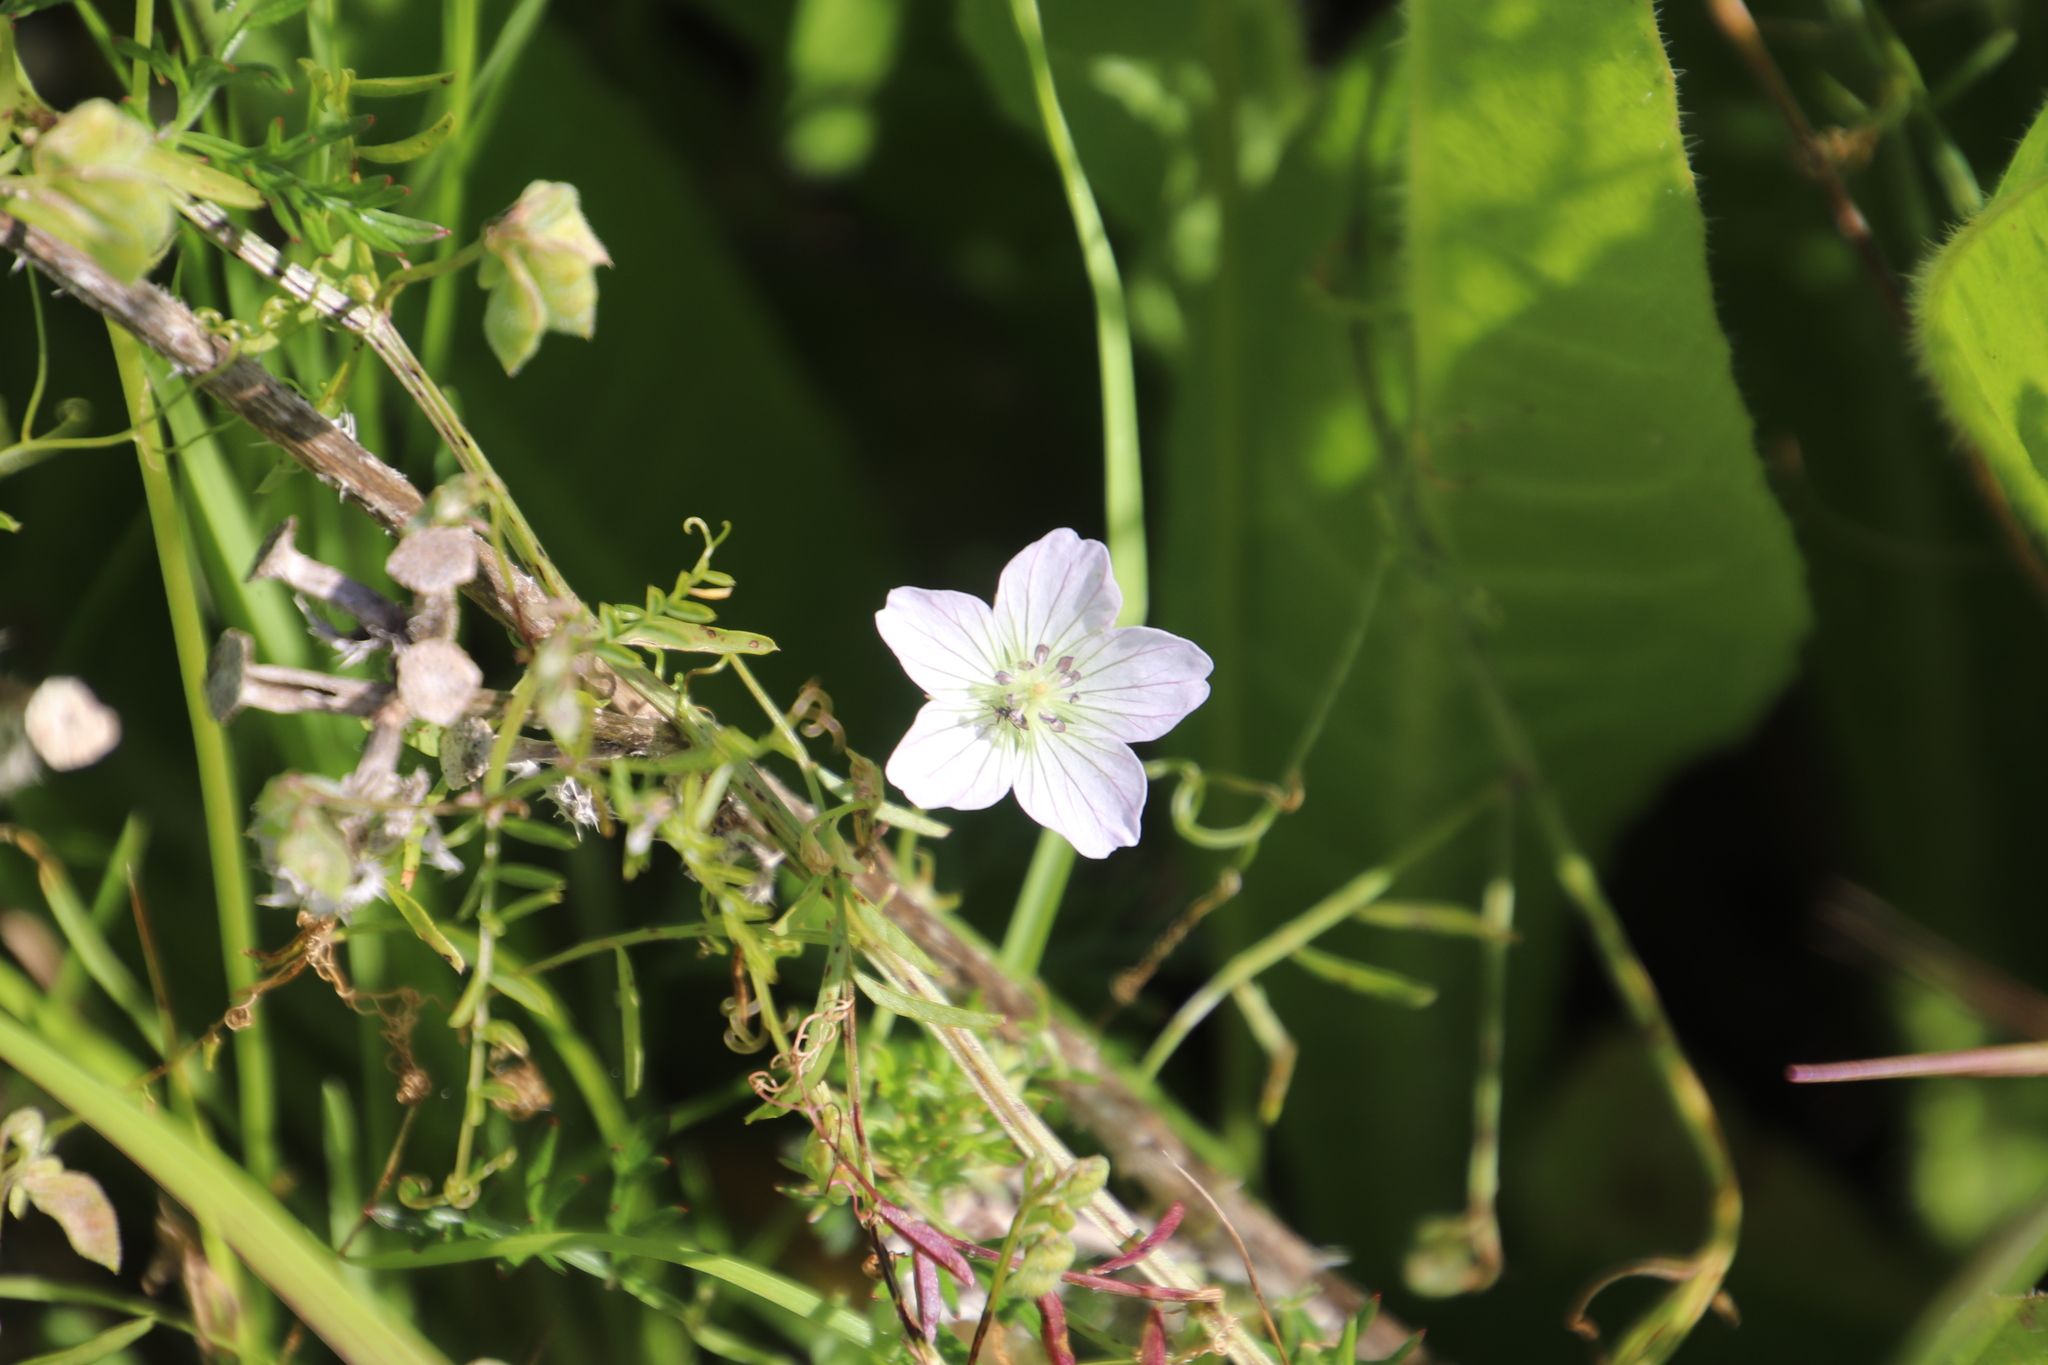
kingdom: Plantae
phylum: Tracheophyta
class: Magnoliopsida
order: Geraniales
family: Geraniaceae
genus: Geranium
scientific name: Geranium incanum
